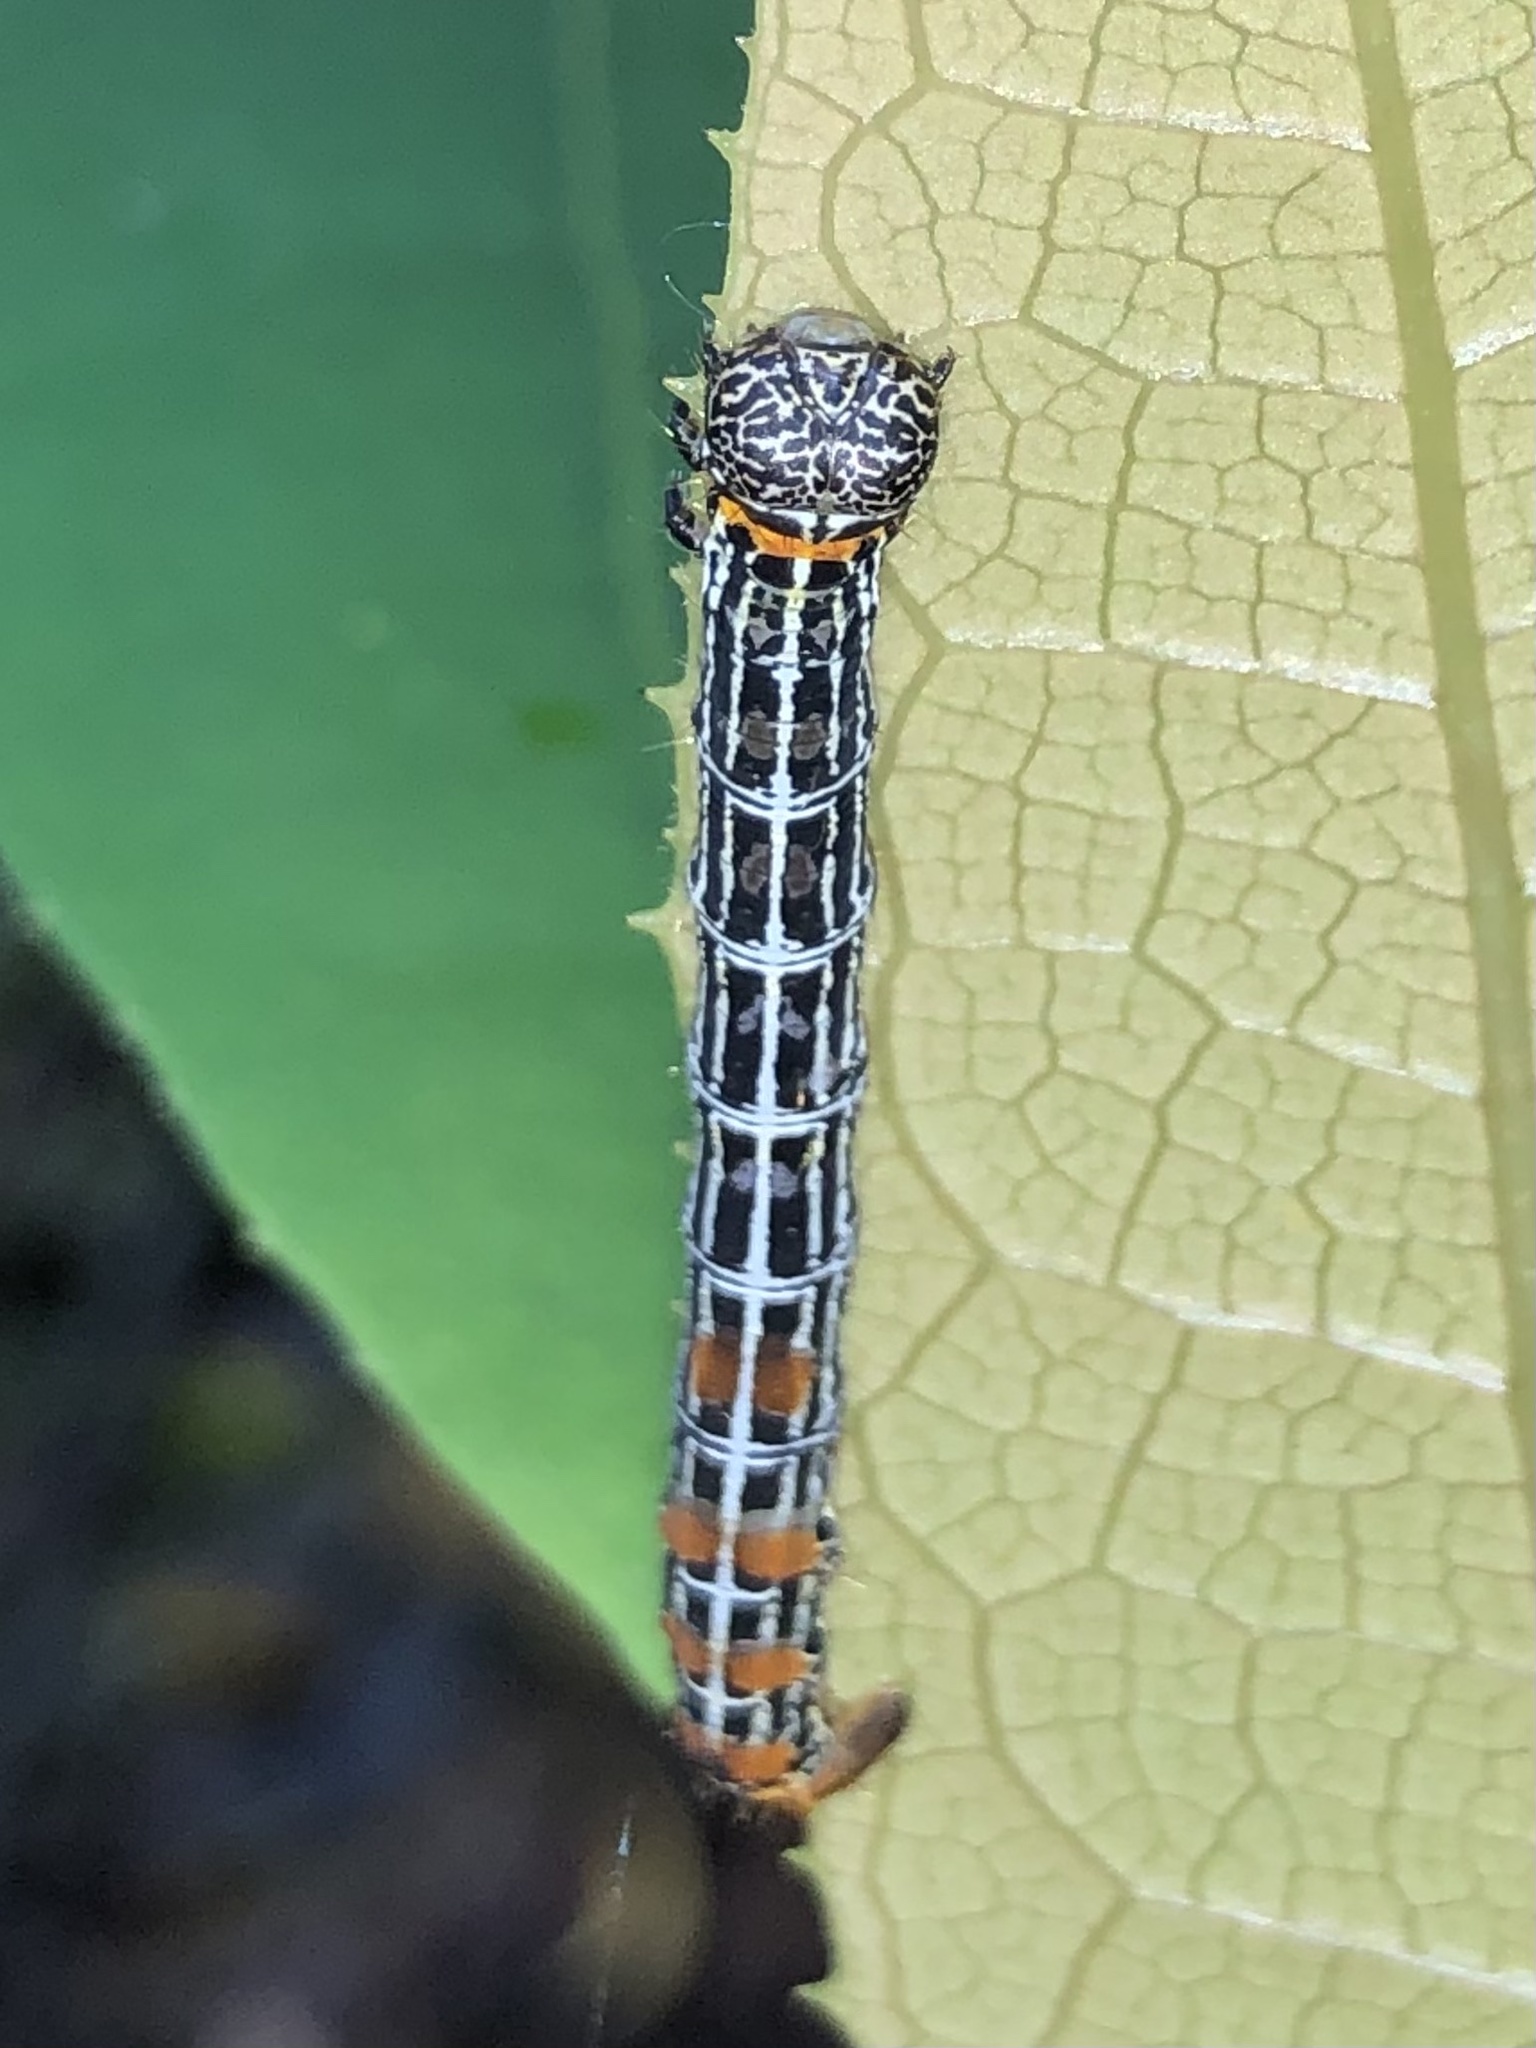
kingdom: Animalia
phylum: Arthropoda
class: Insecta
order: Lepidoptera
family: Geometridae
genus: Bracca
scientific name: Bracca matutinata
